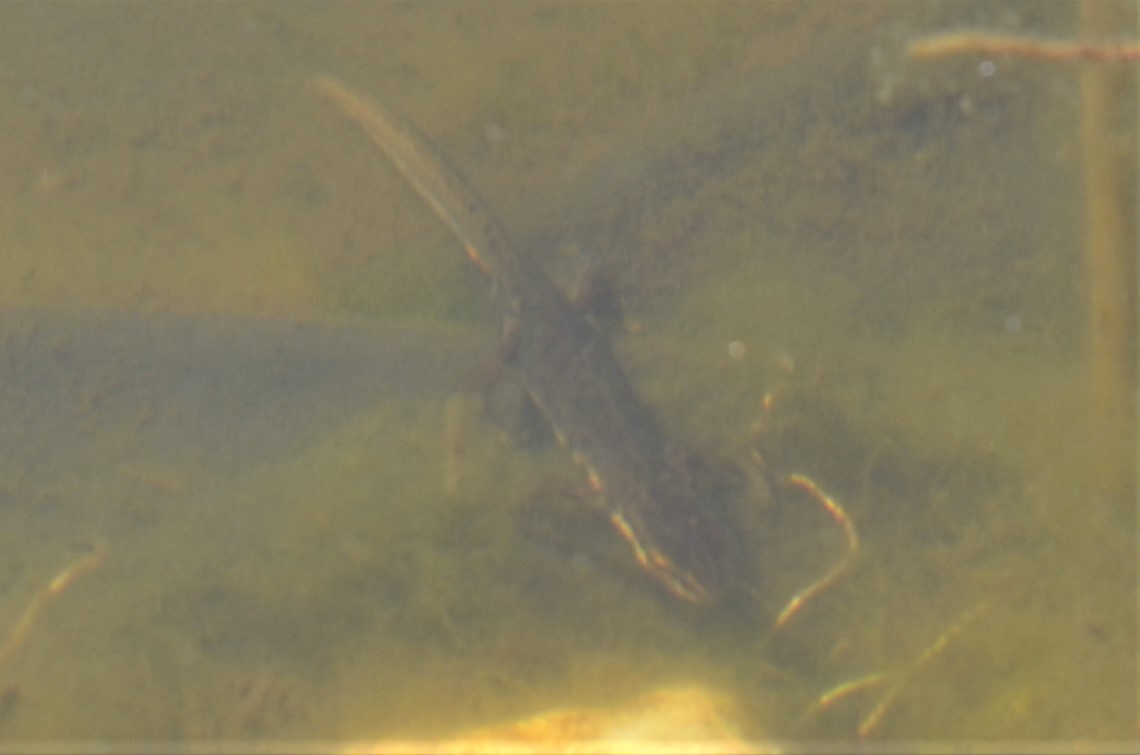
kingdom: Animalia
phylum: Chordata
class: Amphibia
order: Caudata
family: Salamandridae
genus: Lissotriton
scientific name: Lissotriton vulgaris
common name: Smooth newt
